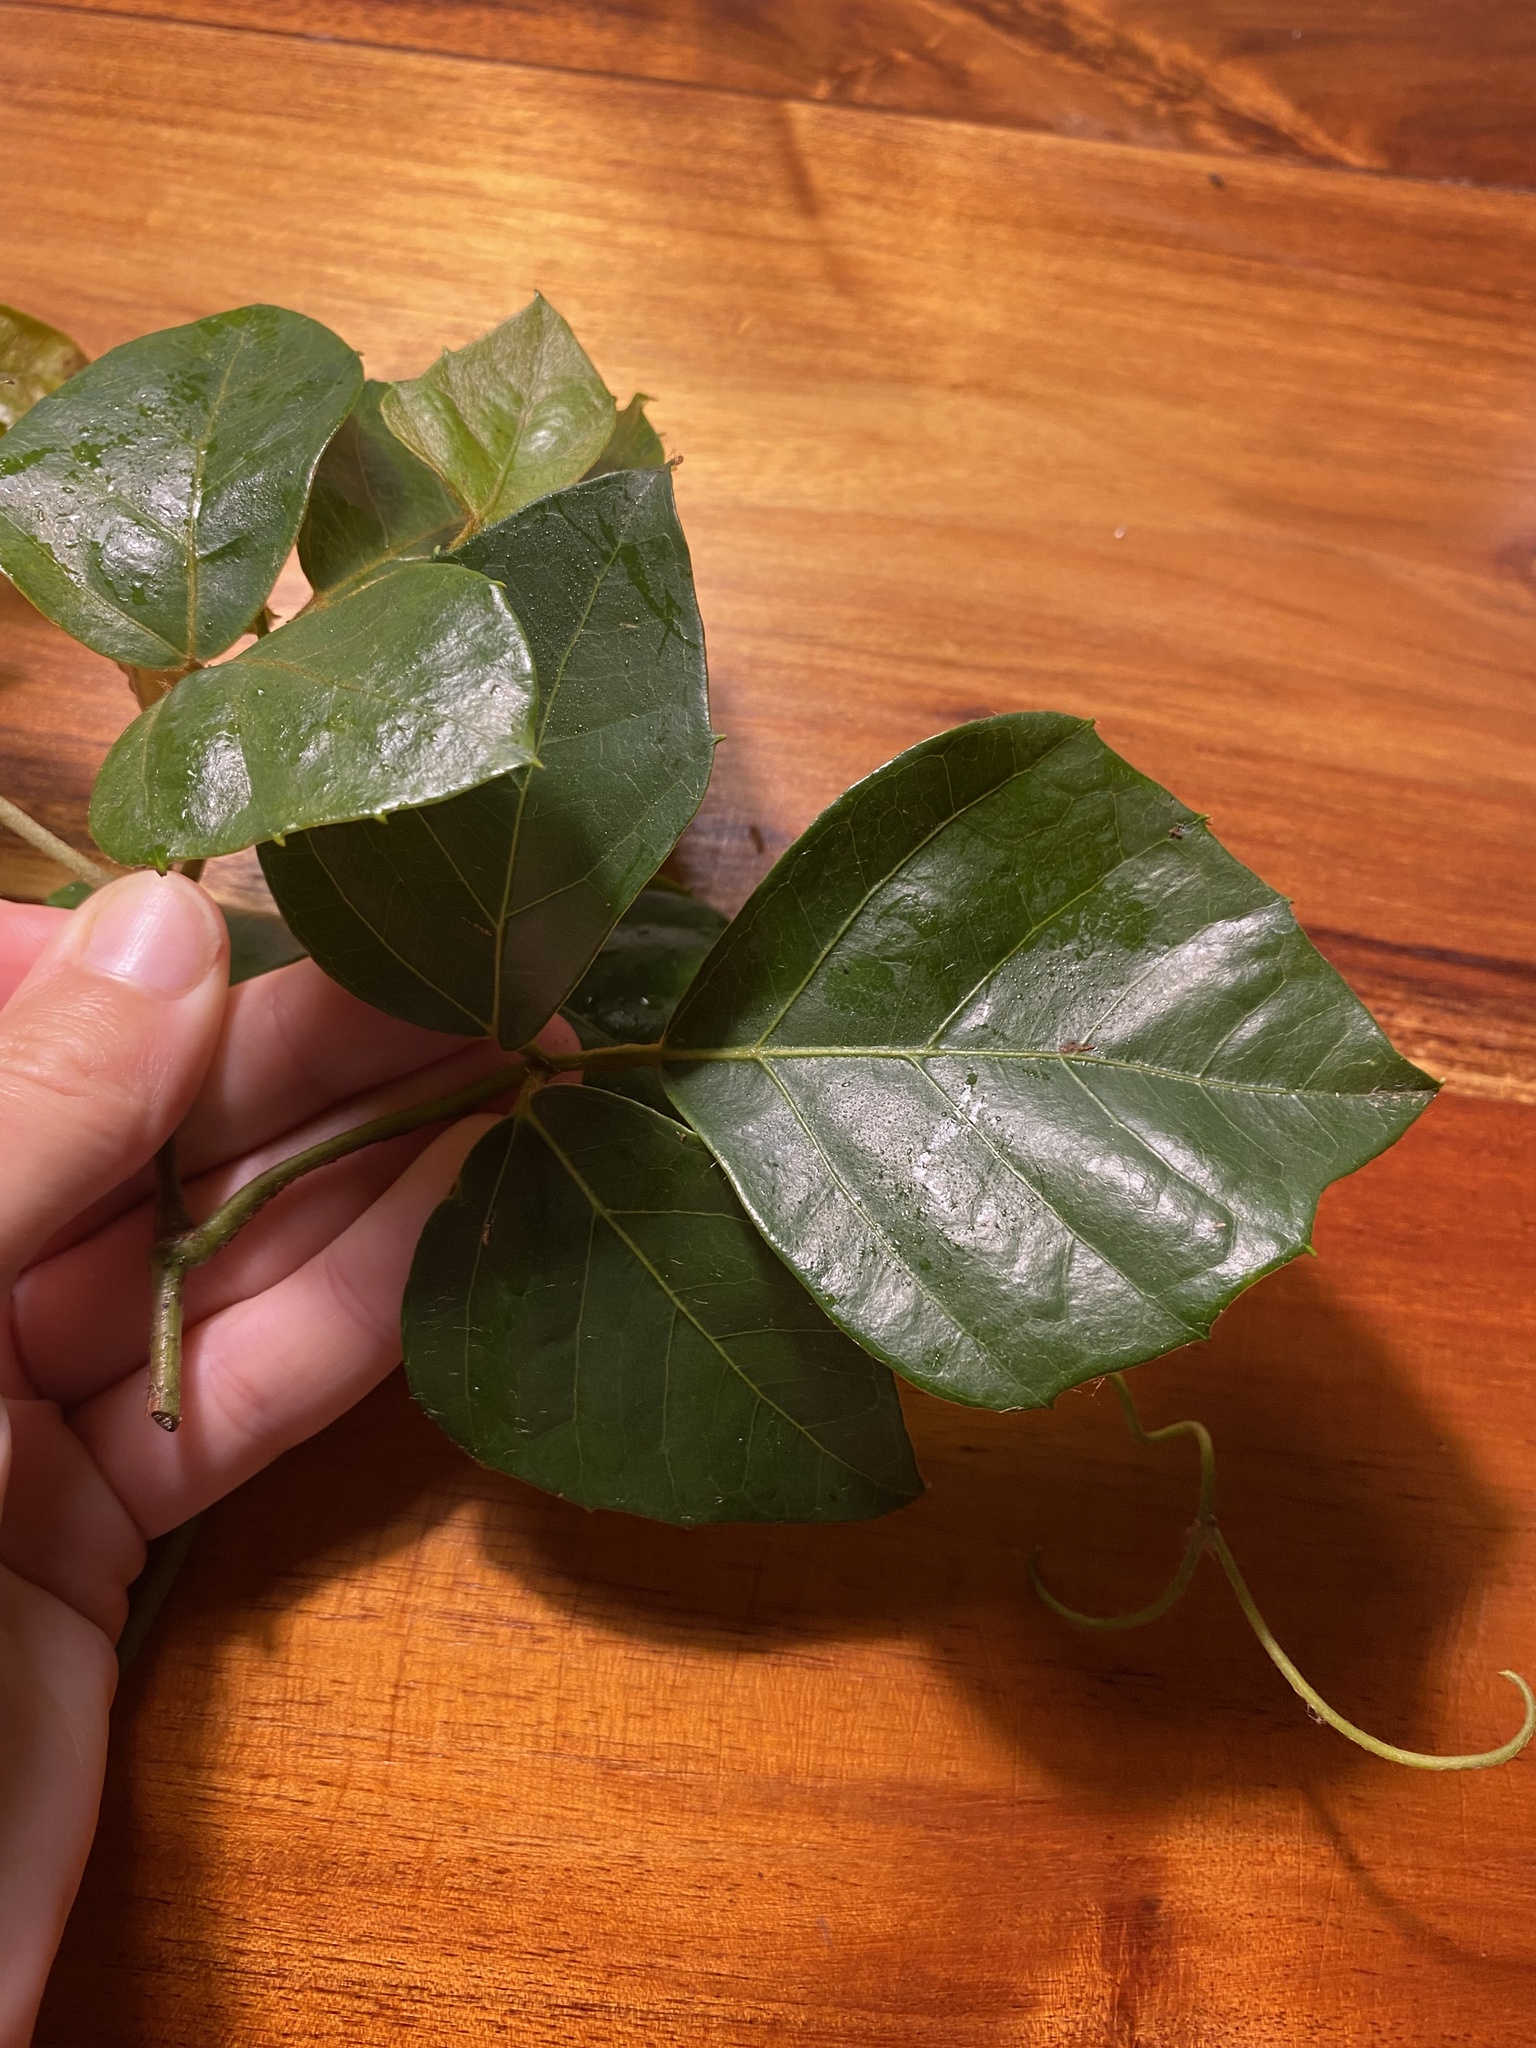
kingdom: Plantae
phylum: Tracheophyta
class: Magnoliopsida
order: Vitales
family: Vitaceae
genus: Rhoicissus
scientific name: Rhoicissus rhomboidea
